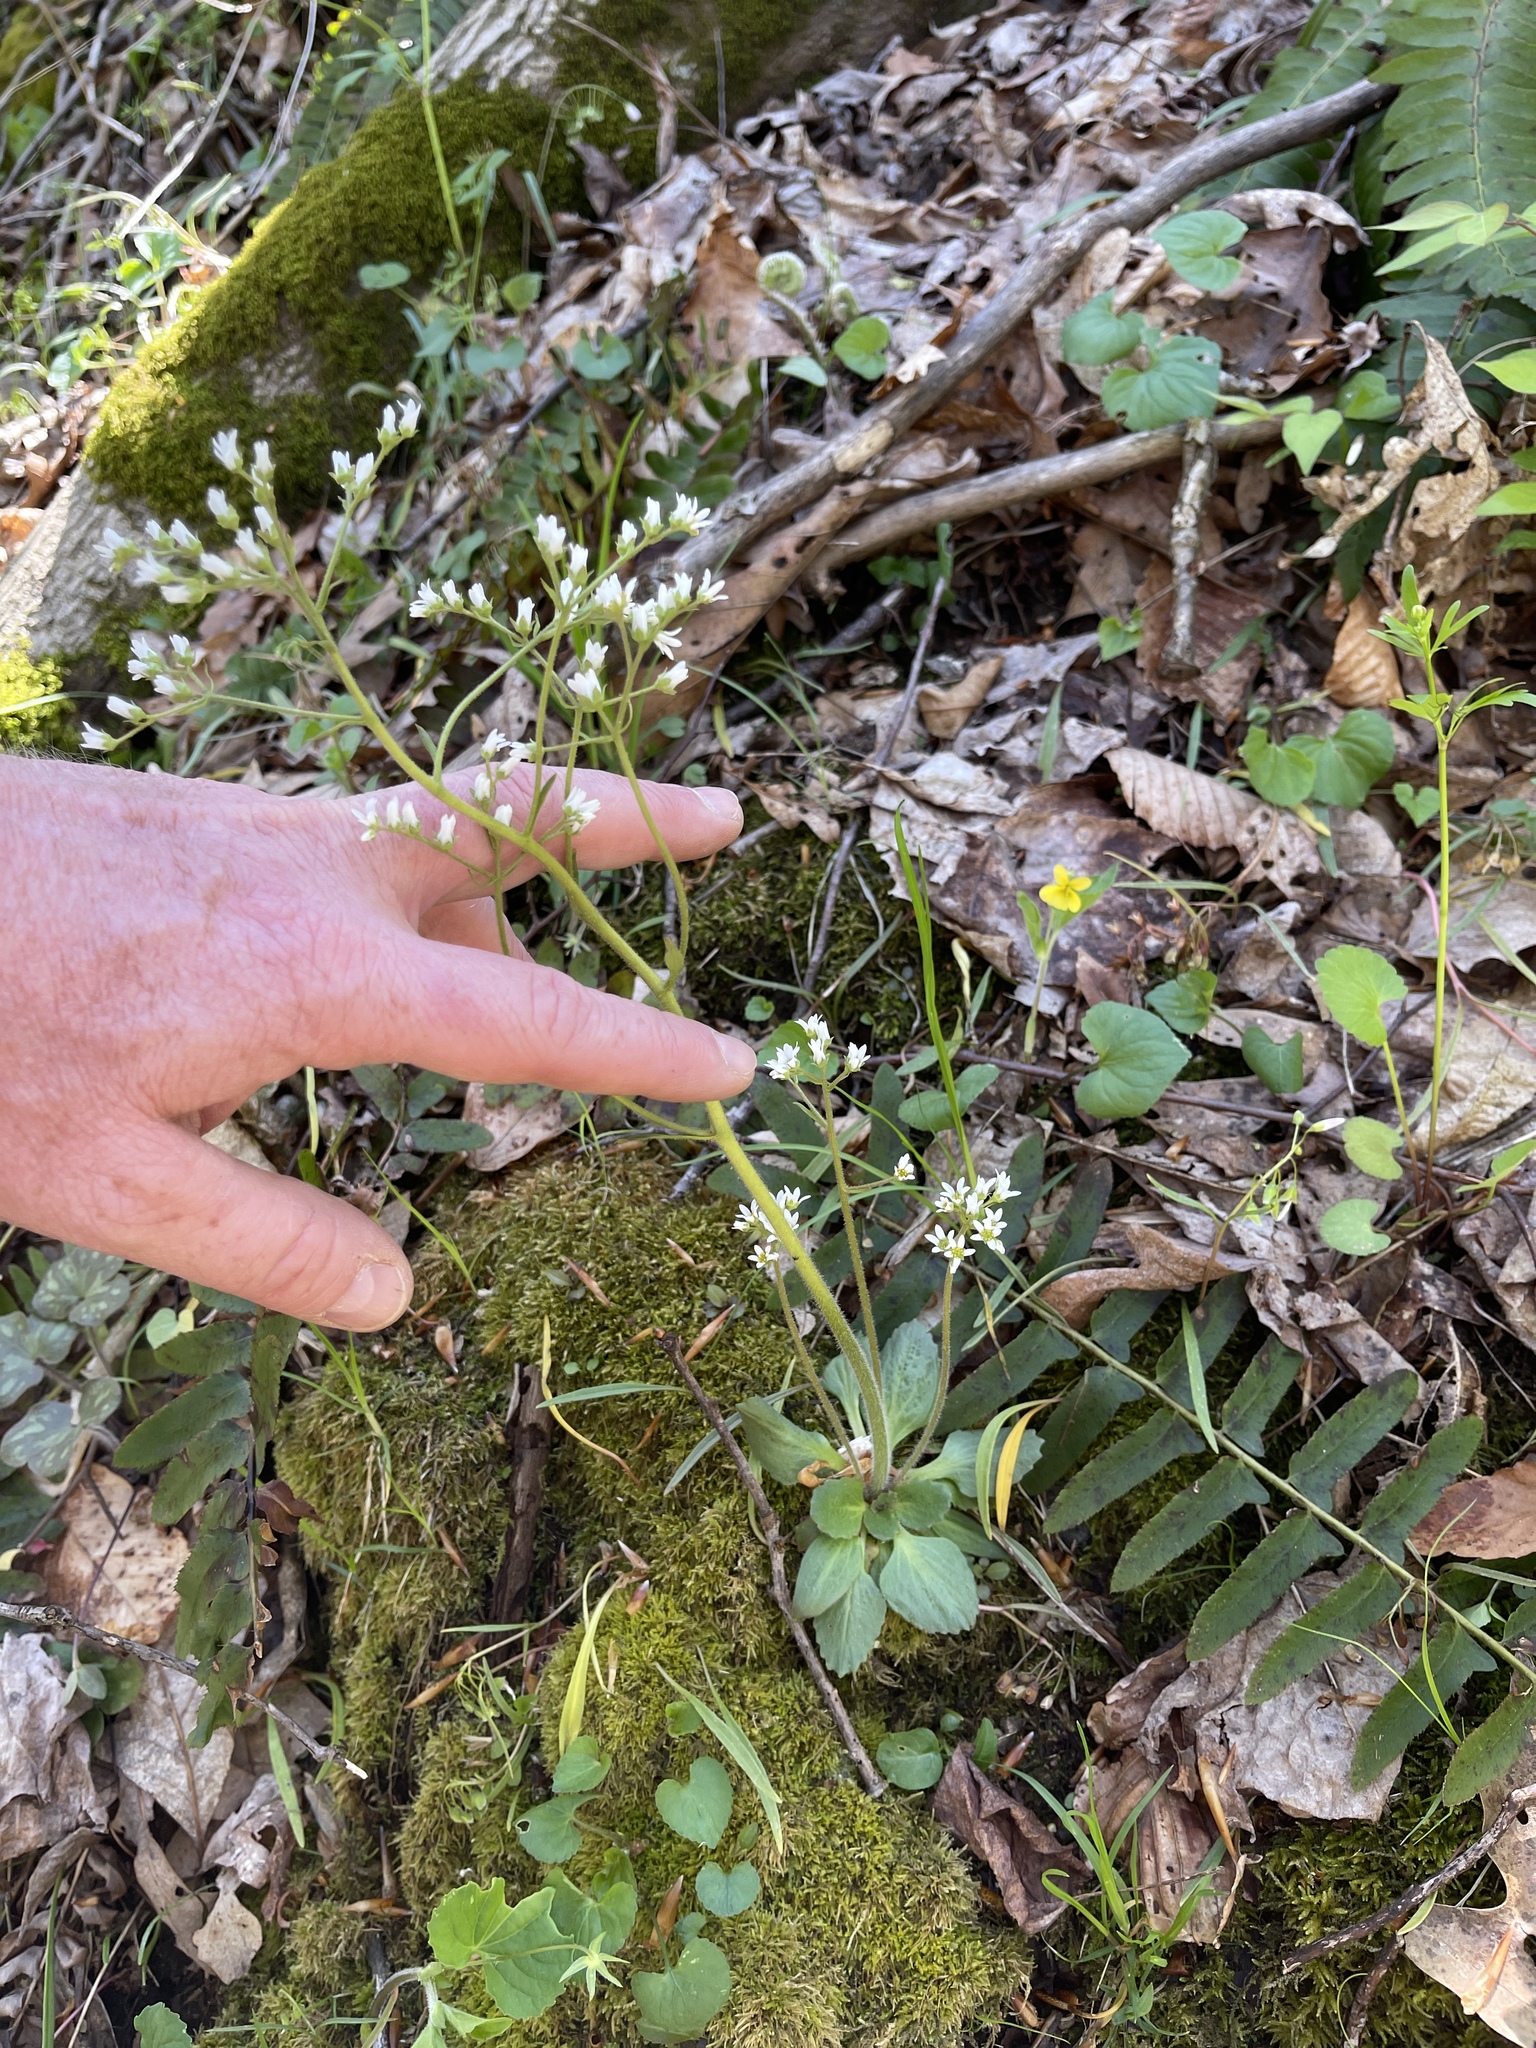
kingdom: Plantae
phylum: Tracheophyta
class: Magnoliopsida
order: Saxifragales
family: Saxifragaceae
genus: Micranthes
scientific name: Micranthes virginiensis
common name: Early saxifrage
